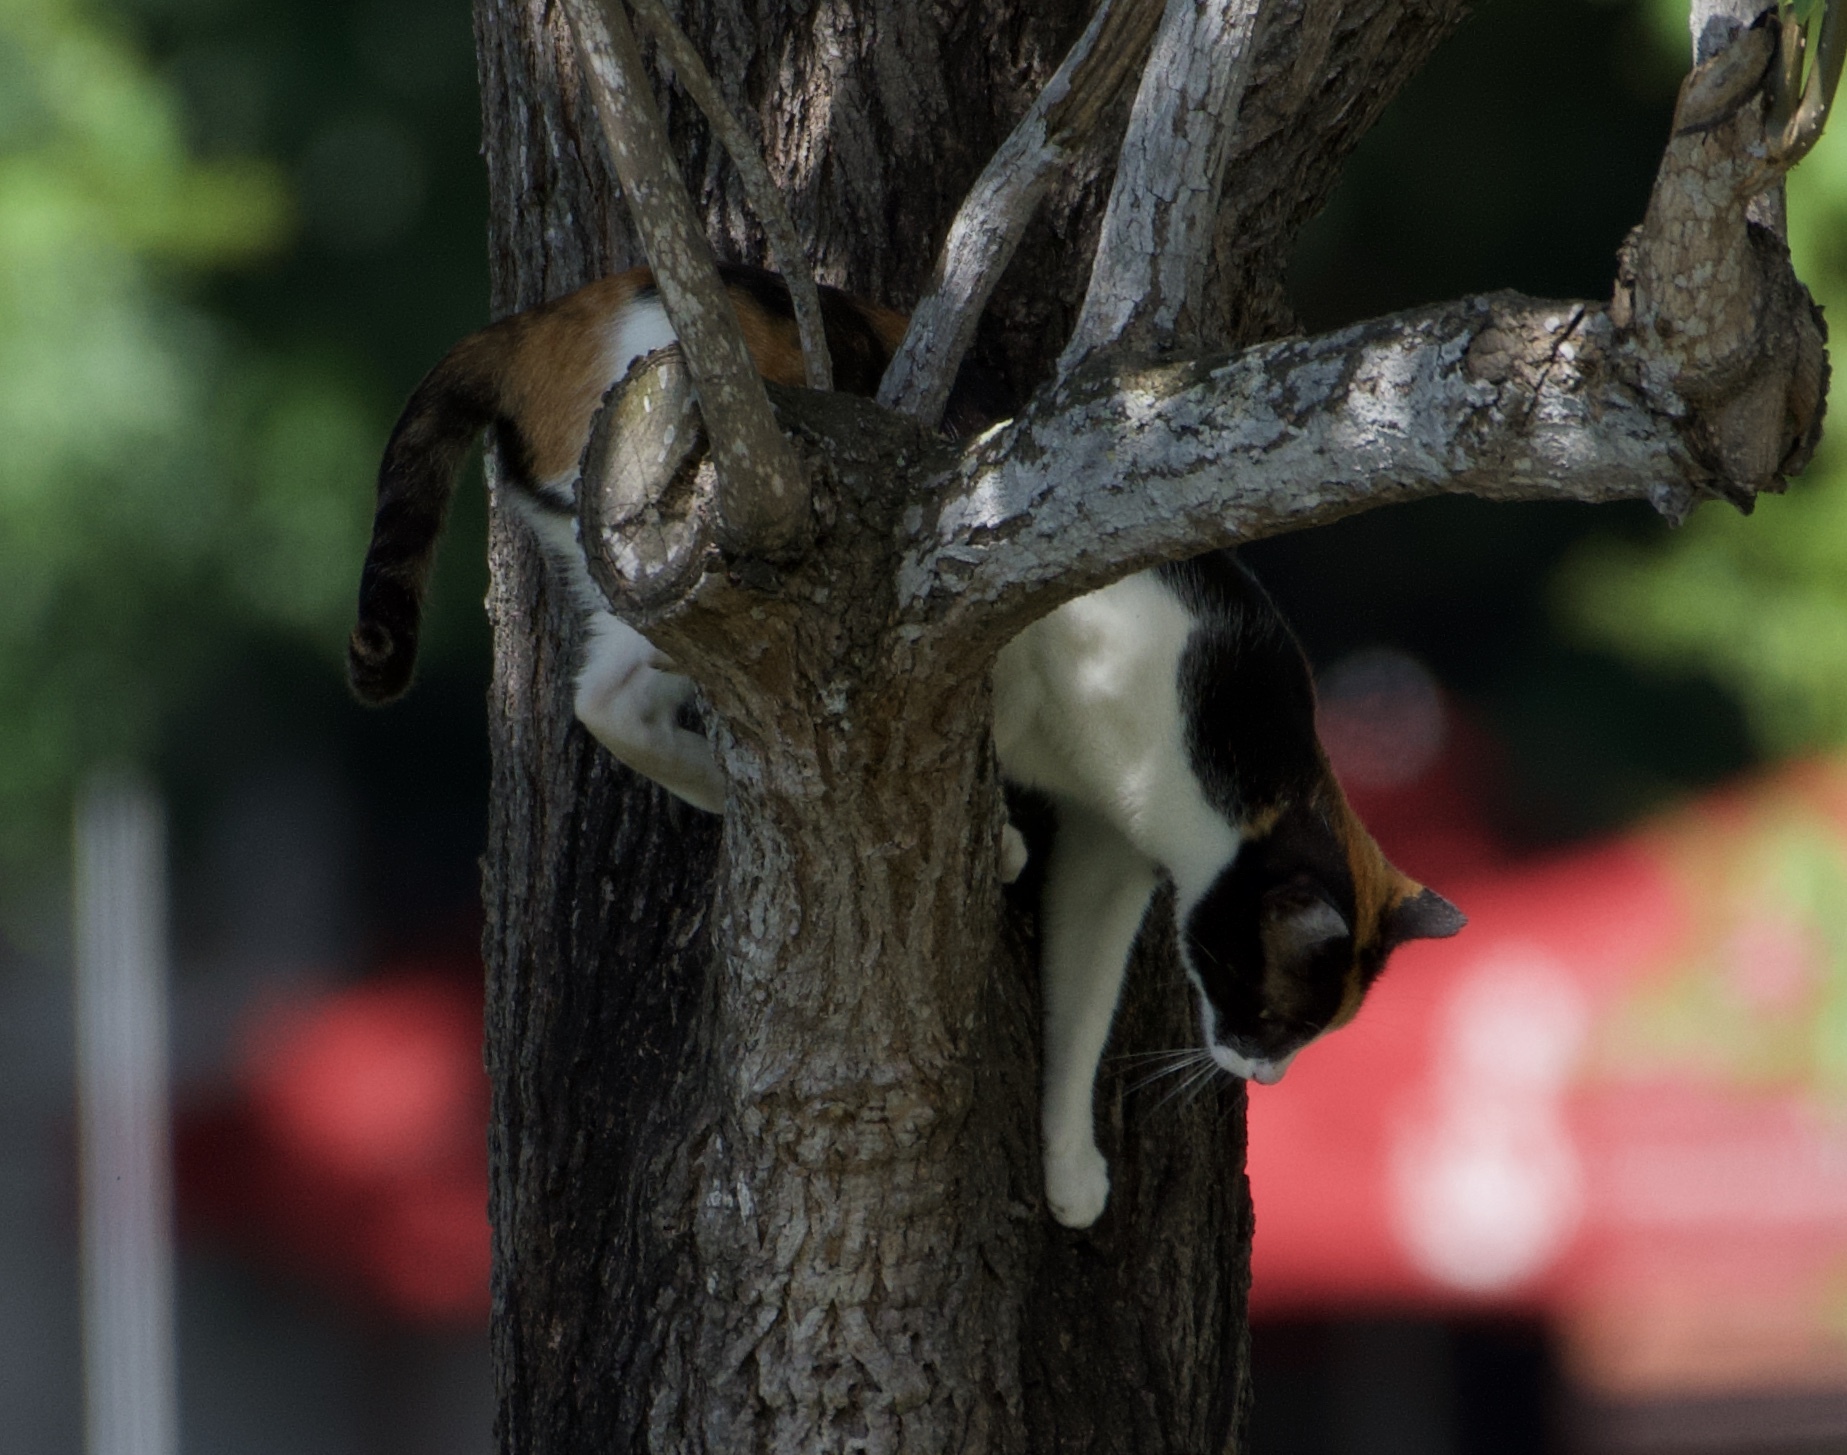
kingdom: Animalia
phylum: Chordata
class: Mammalia
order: Carnivora
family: Felidae
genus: Felis
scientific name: Felis catus
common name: Domestic cat
